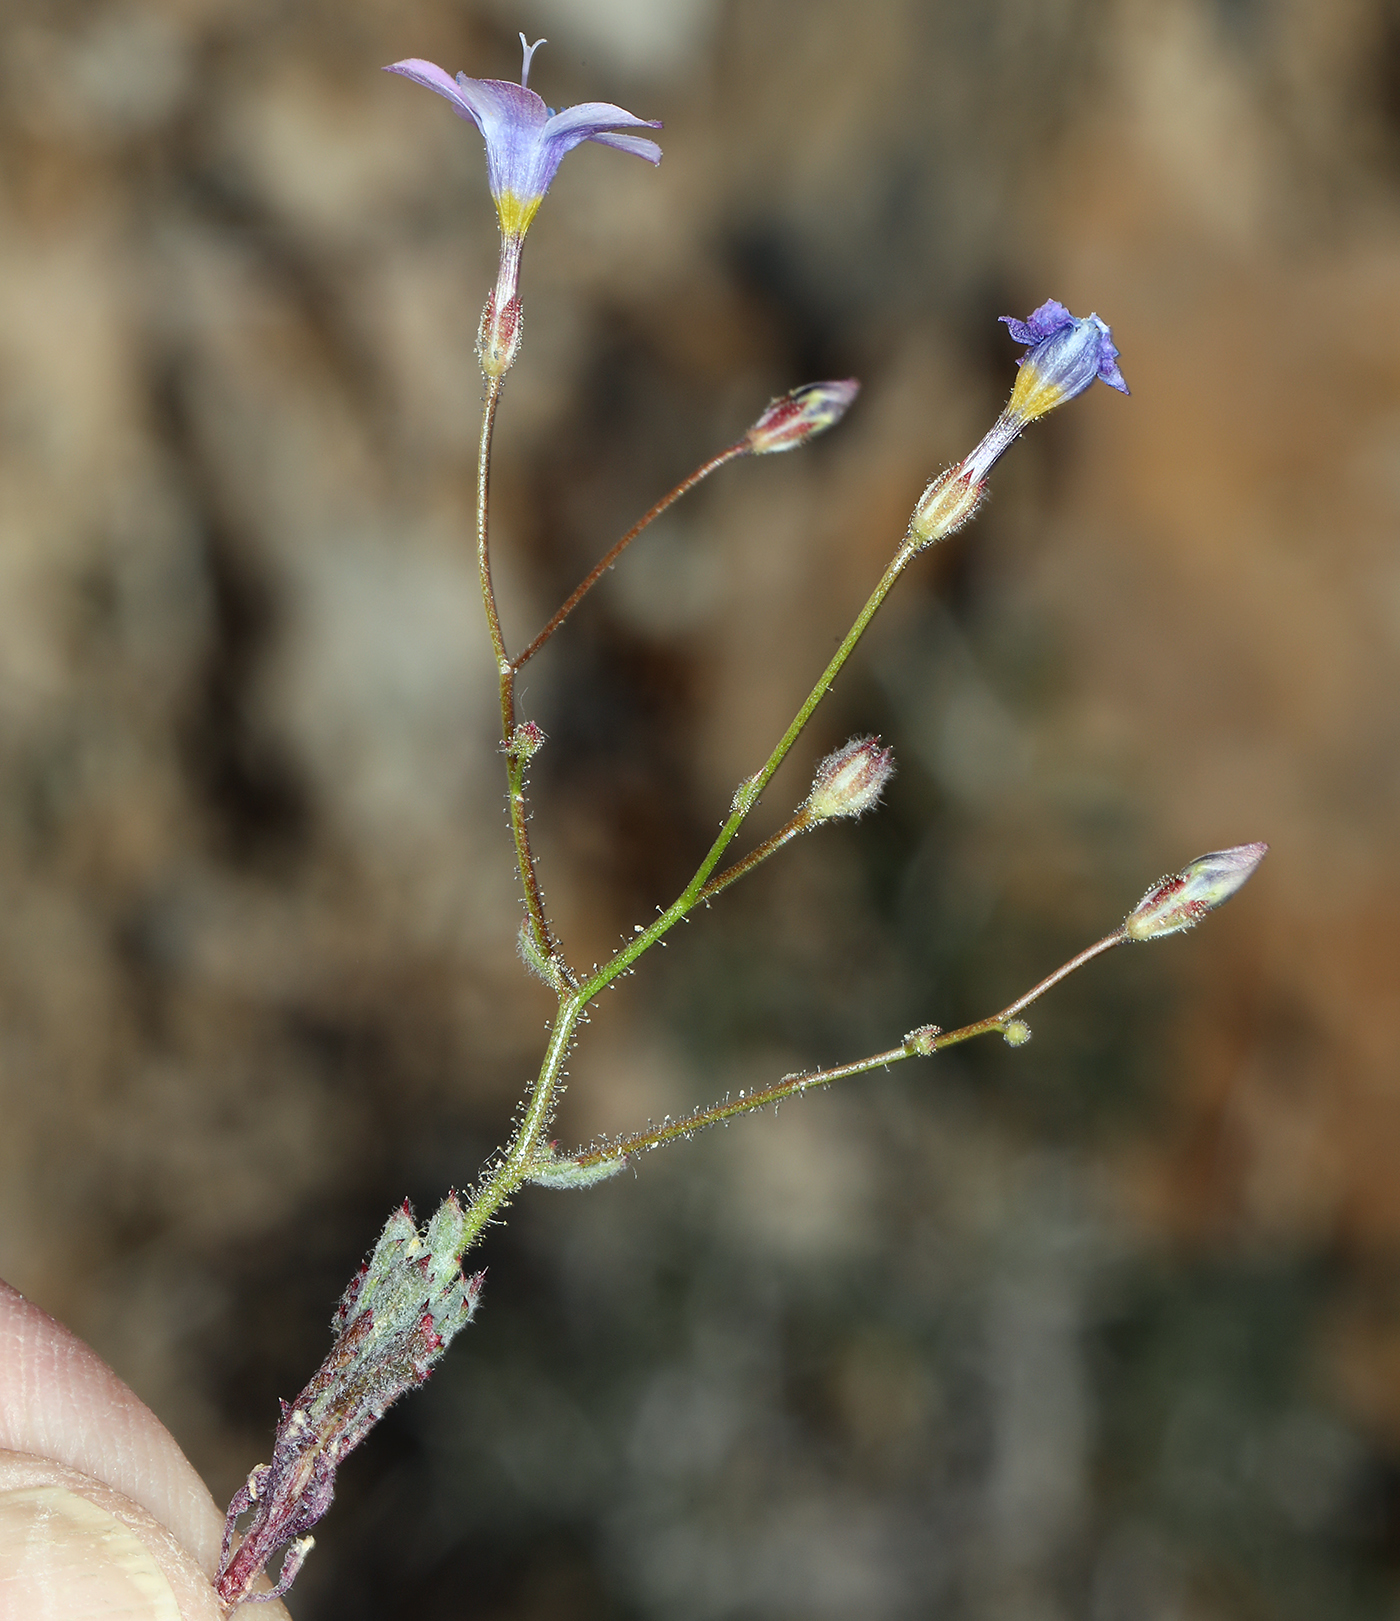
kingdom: Plantae
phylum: Tracheophyta
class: Magnoliopsida
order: Ericales
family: Polemoniaceae
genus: Gilia
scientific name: Gilia cana
